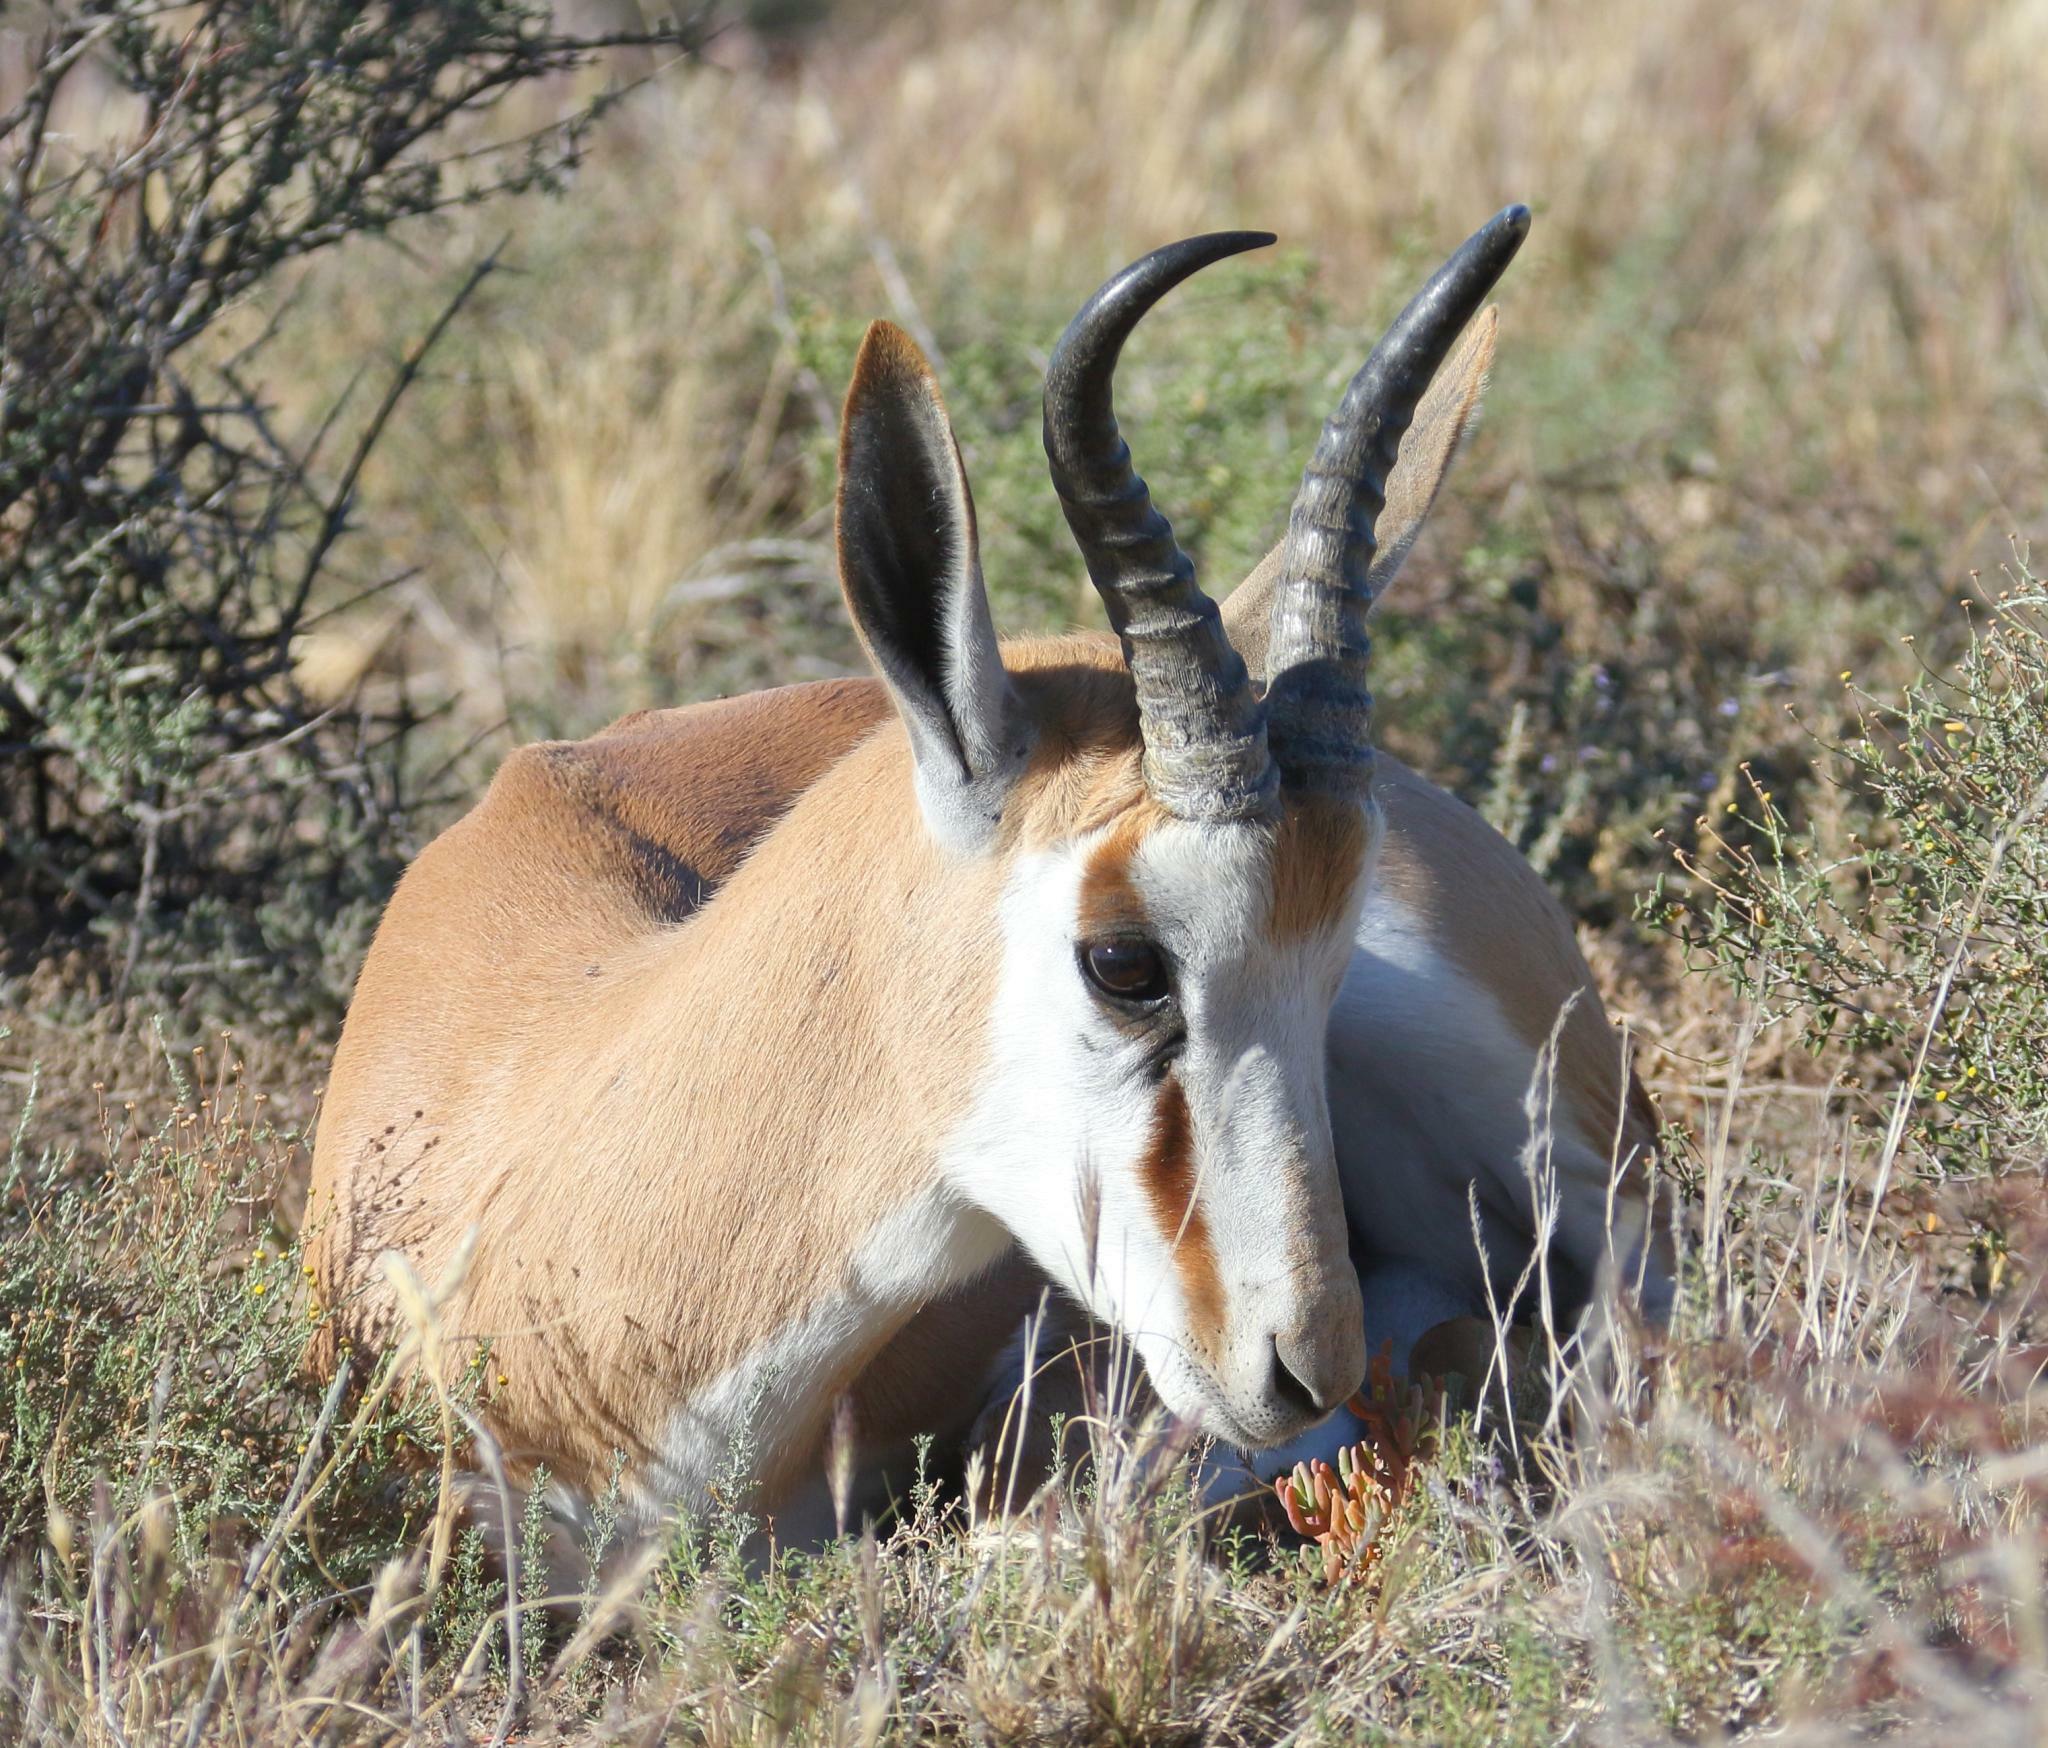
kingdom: Animalia
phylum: Chordata
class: Mammalia
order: Artiodactyla
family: Bovidae
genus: Antidorcas
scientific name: Antidorcas marsupialis
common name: Springbok
